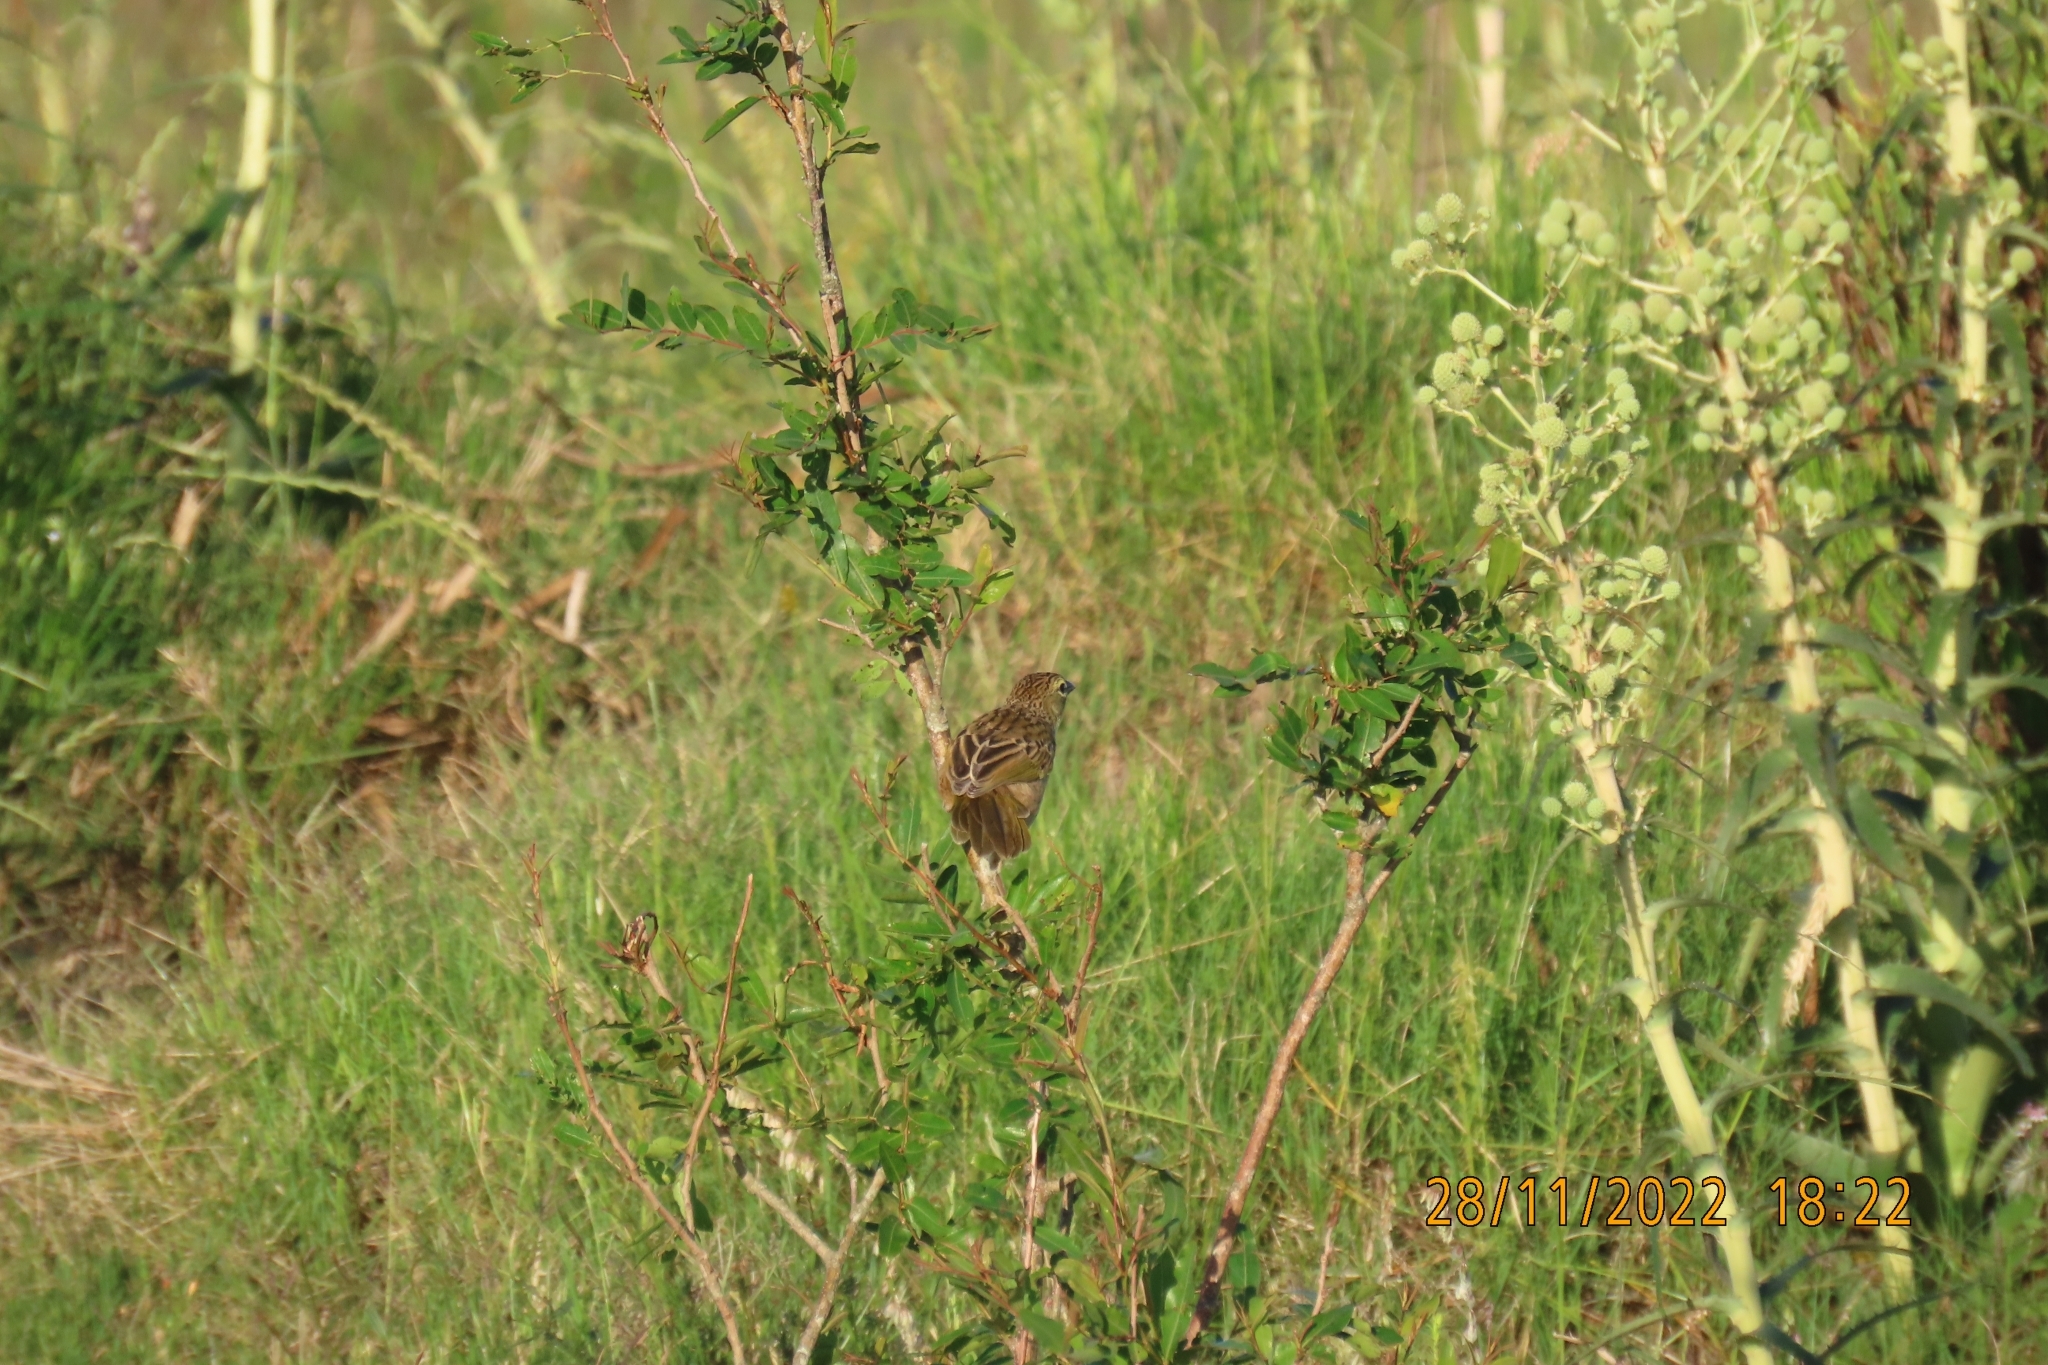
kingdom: Animalia
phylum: Chordata
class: Aves
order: Passeriformes
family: Thraupidae
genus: Embernagra
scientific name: Embernagra platensis
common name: Pampa finch
